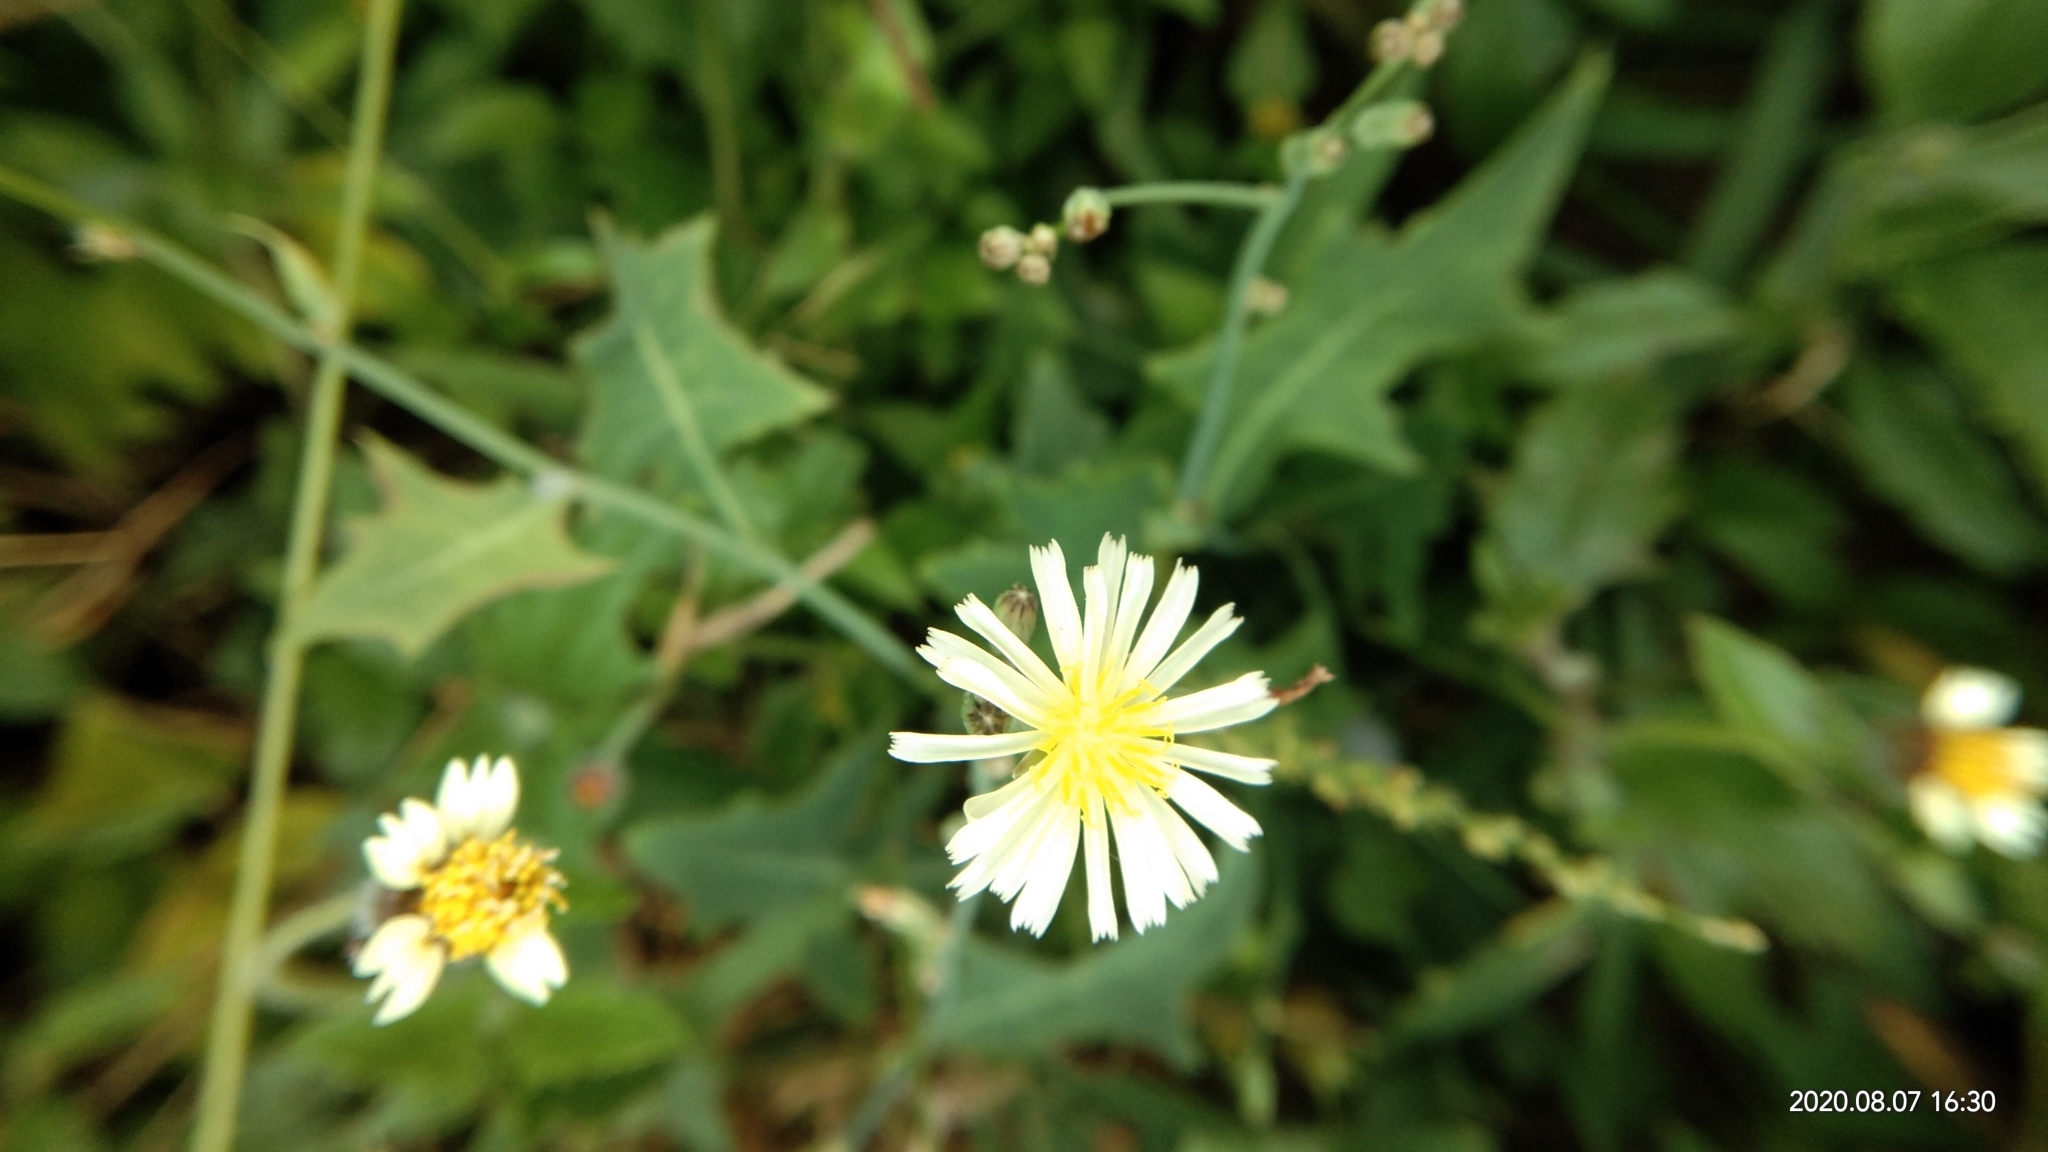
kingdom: Plantae
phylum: Tracheophyta
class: Magnoliopsida
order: Asterales
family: Asteraceae
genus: Lactuca
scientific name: Lactuca indica
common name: Wild lettuce
